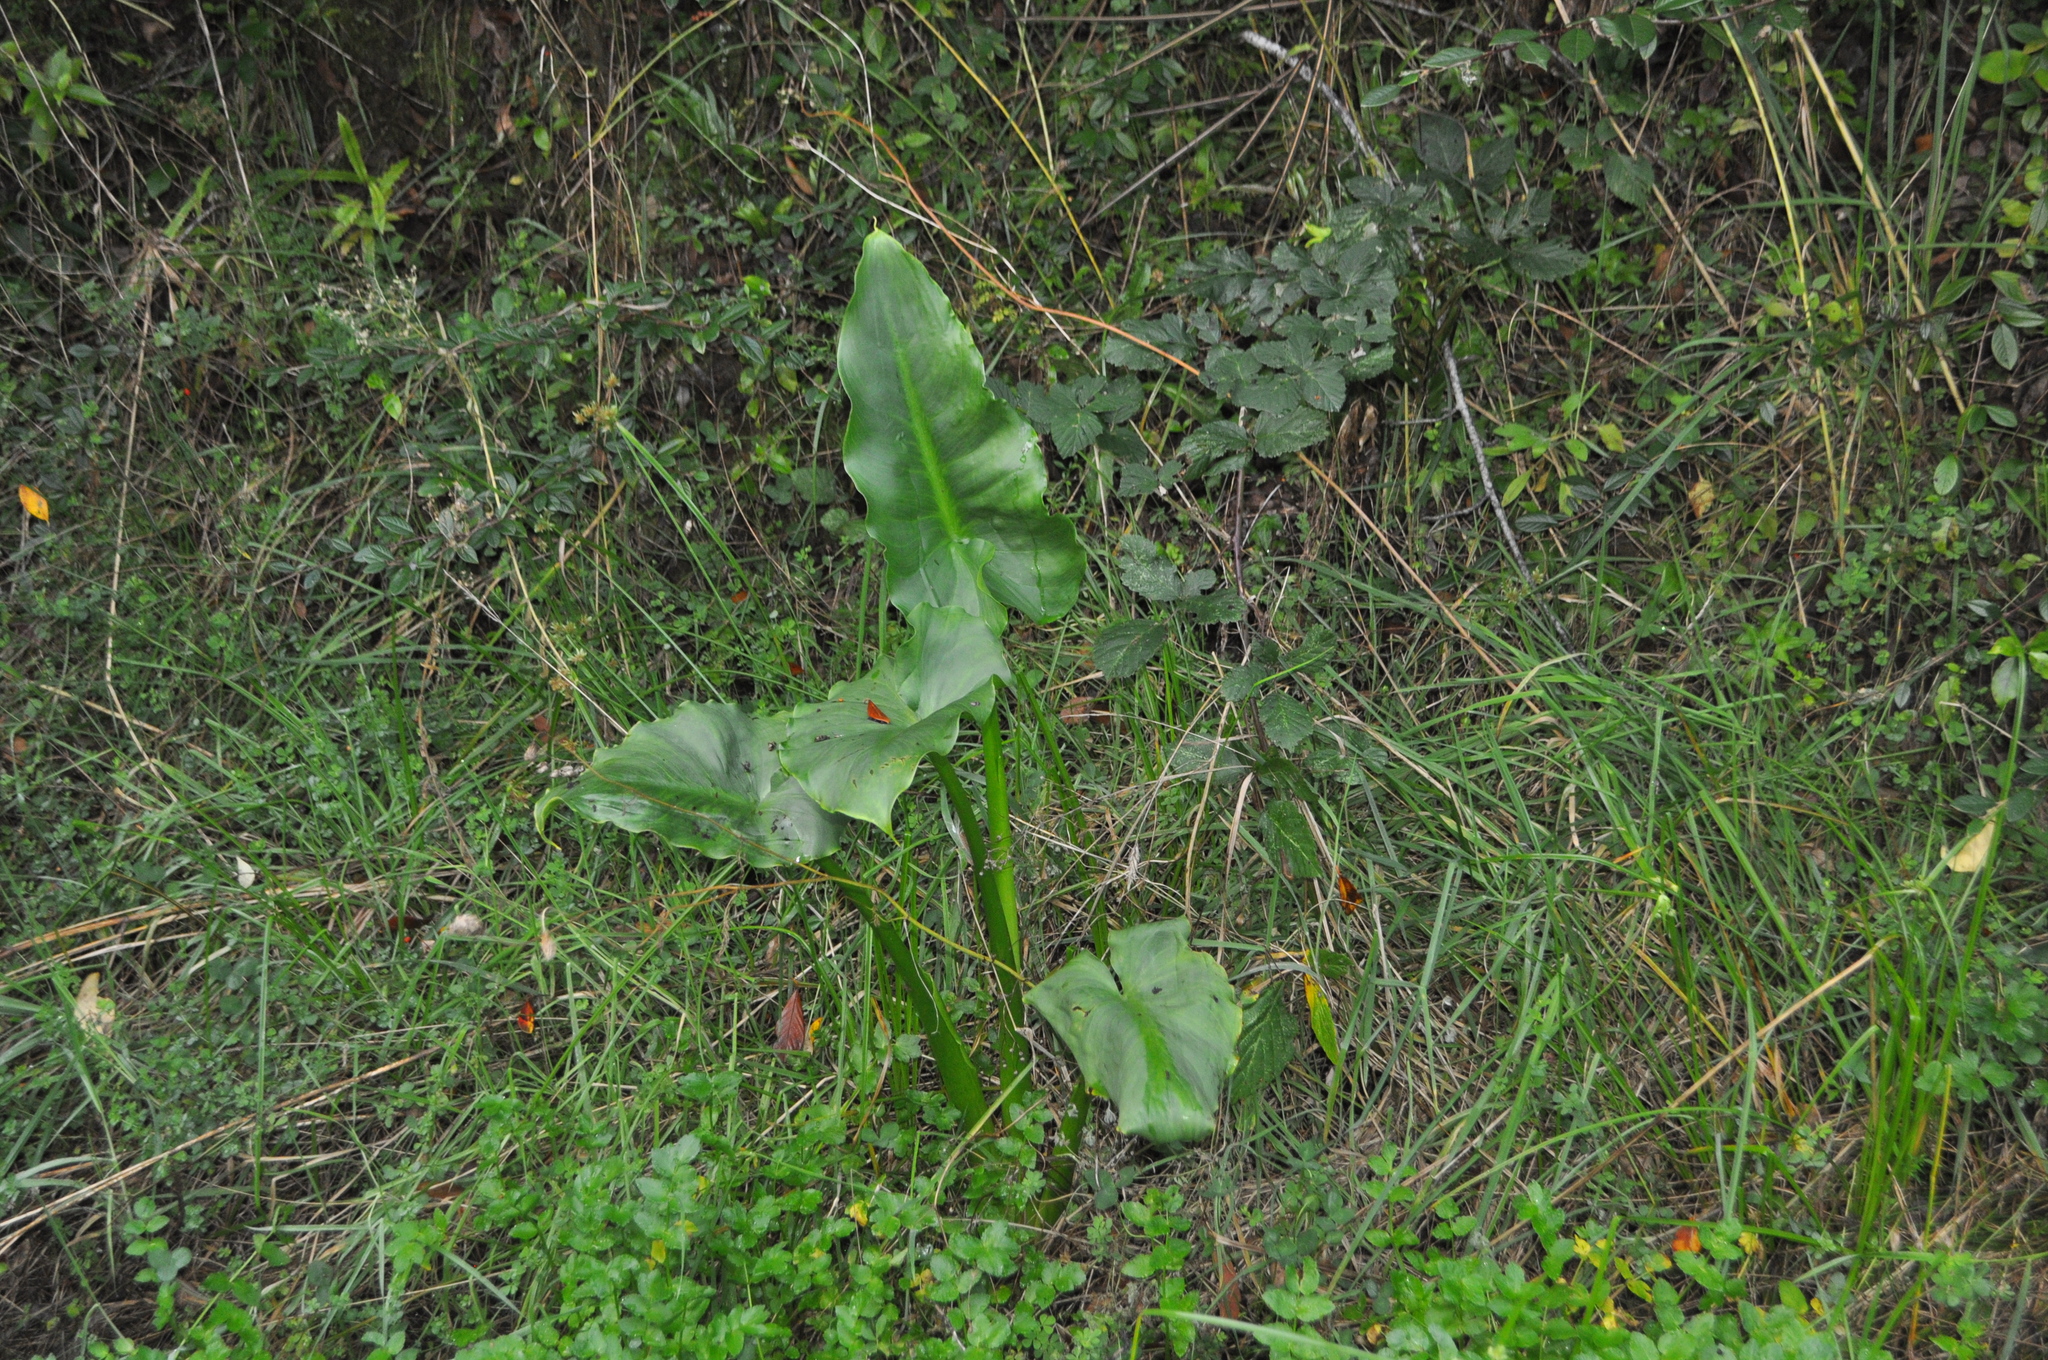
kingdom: Plantae
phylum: Tracheophyta
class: Liliopsida
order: Alismatales
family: Araceae
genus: Zantedeschia
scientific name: Zantedeschia aethiopica
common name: Altar-lily
